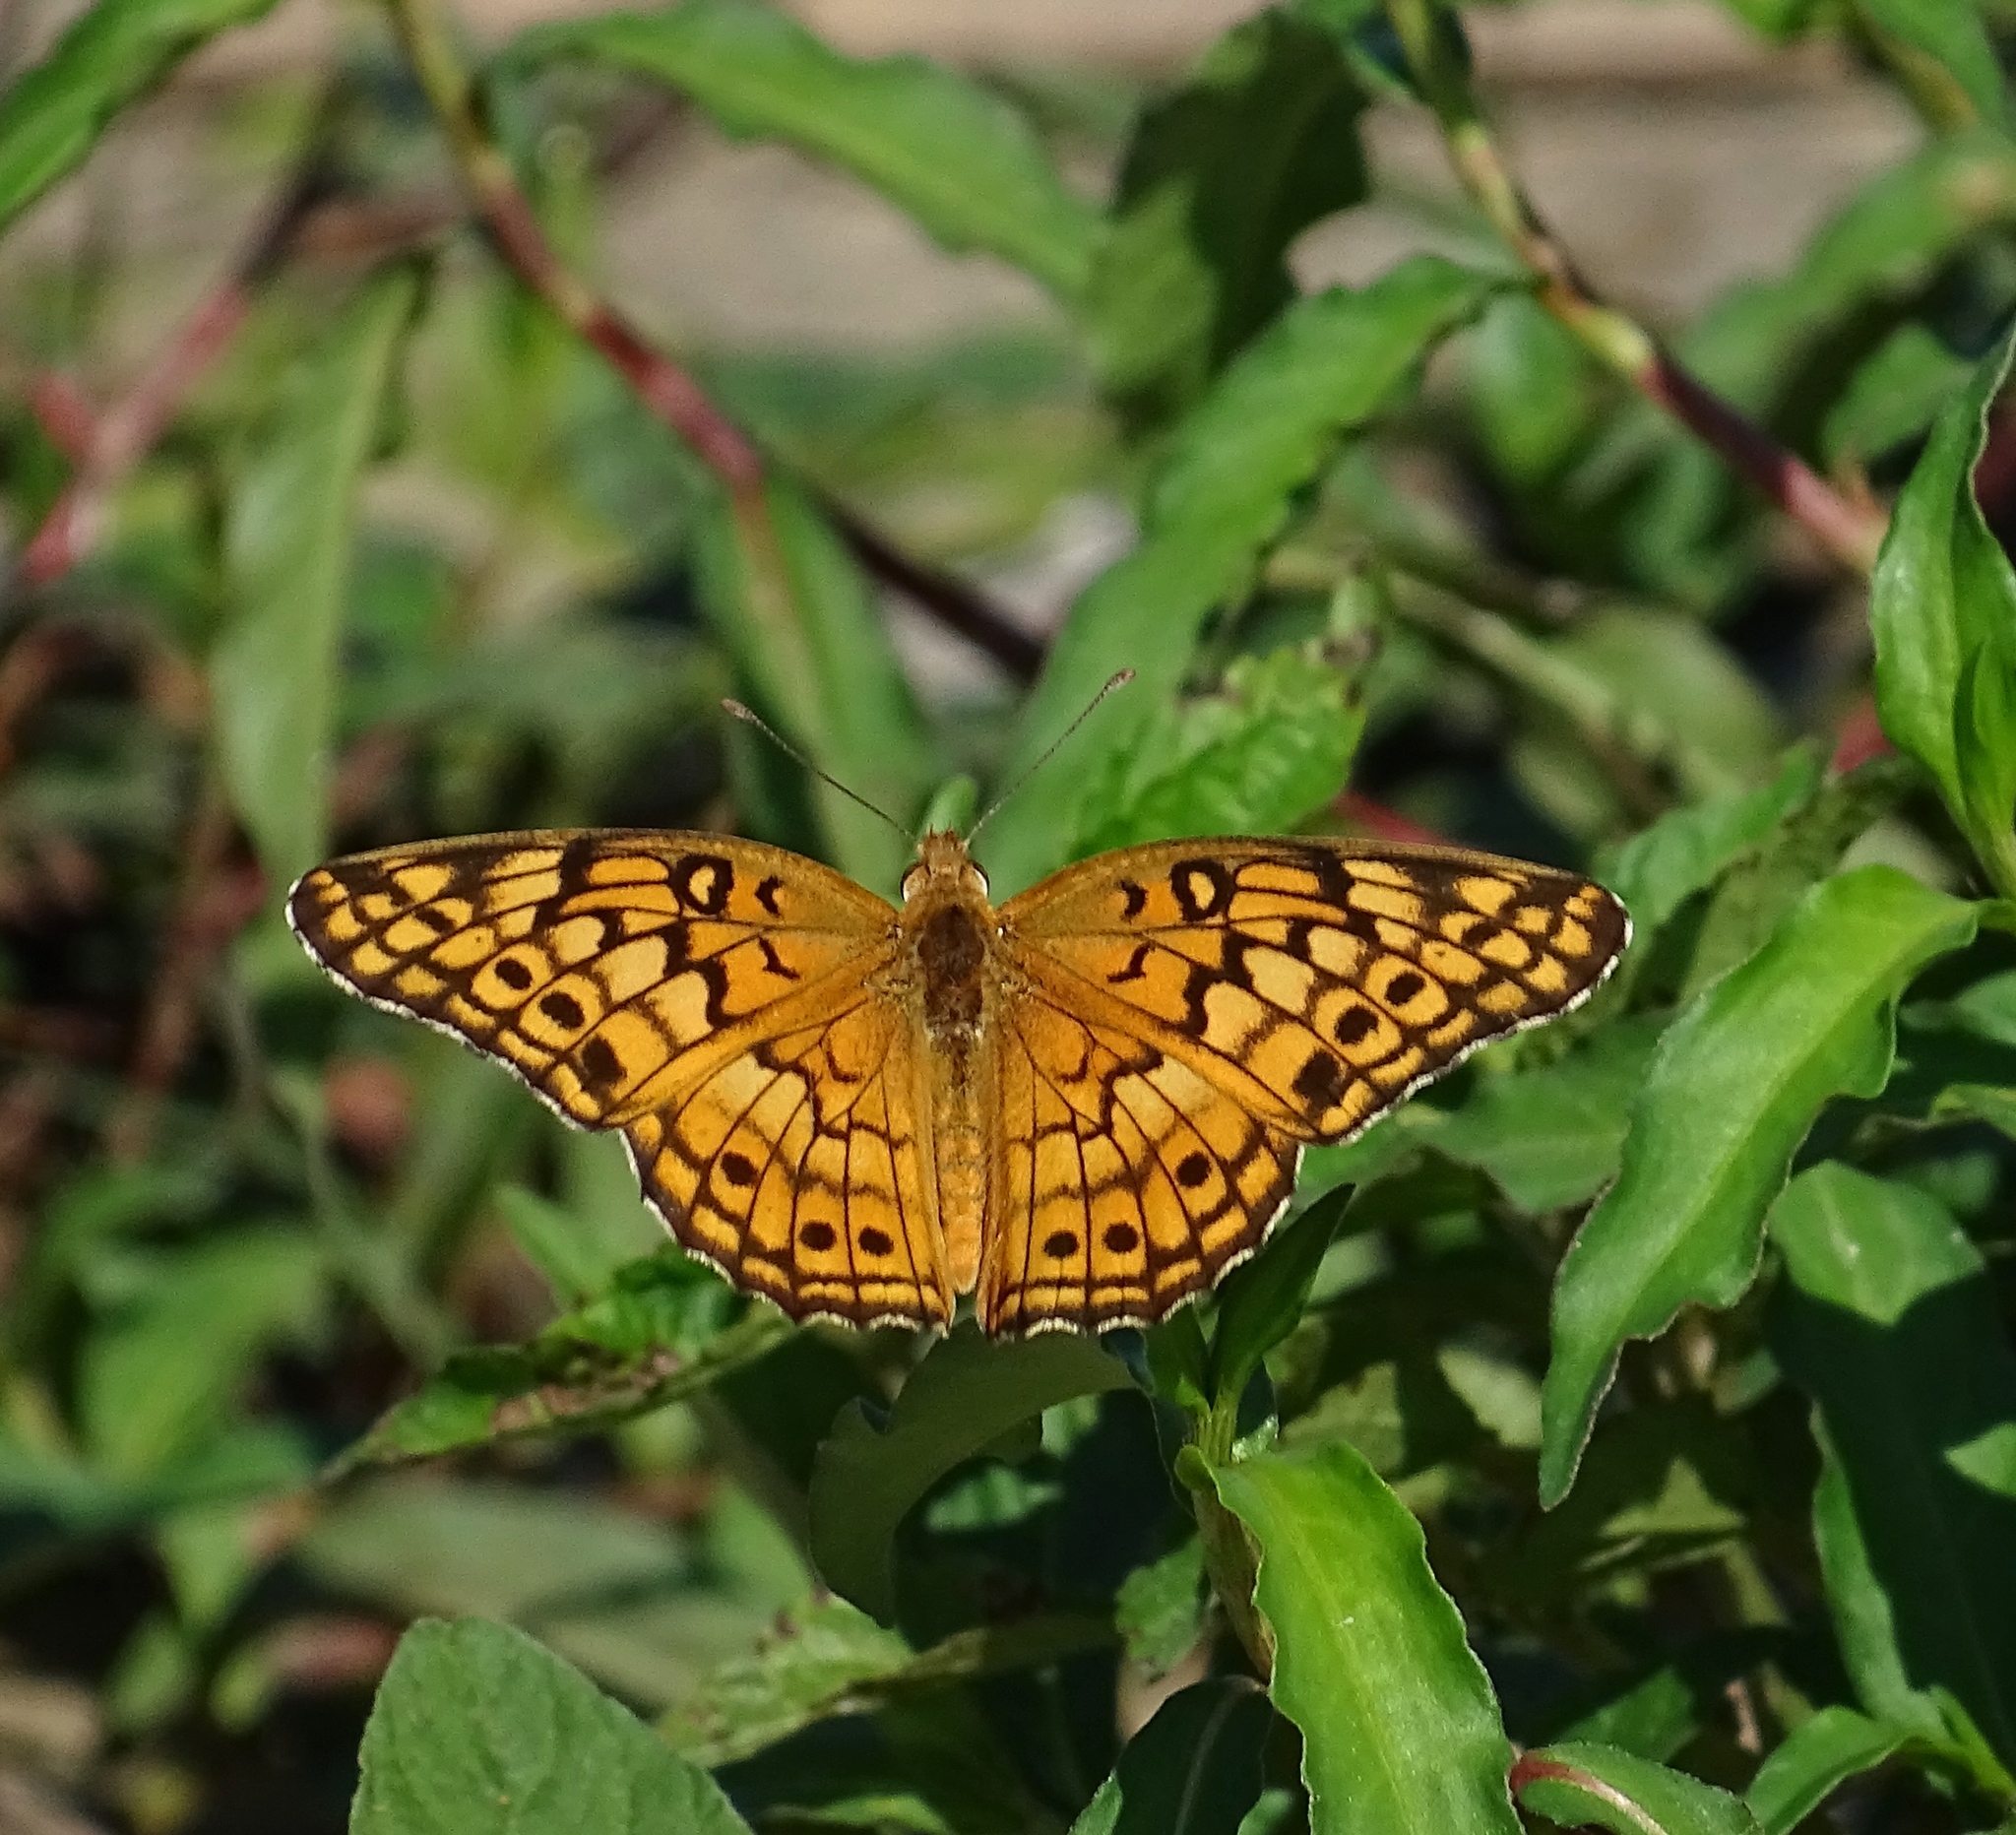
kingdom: Animalia
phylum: Arthropoda
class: Insecta
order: Lepidoptera
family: Nymphalidae
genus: Euptoieta
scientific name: Euptoieta claudia
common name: Variegated fritillary
